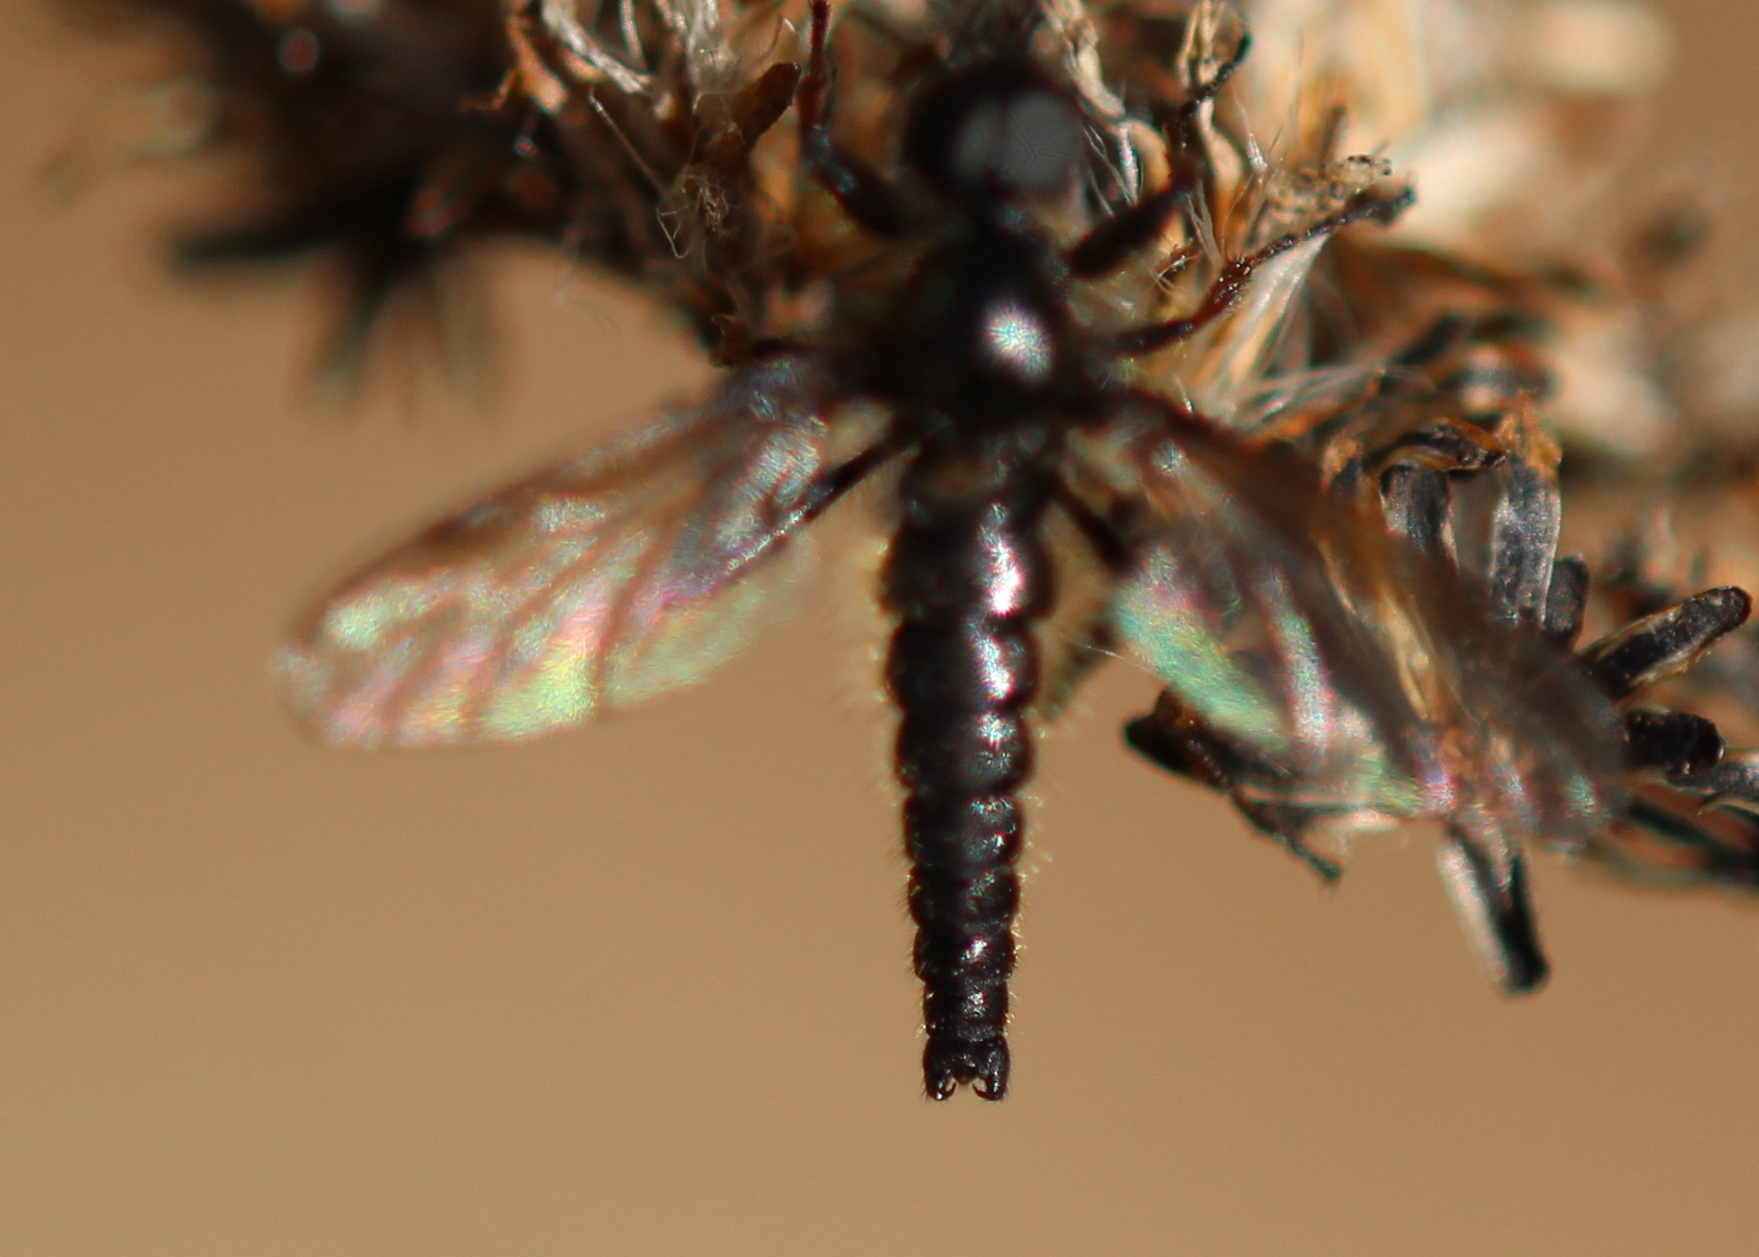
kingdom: Animalia
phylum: Arthropoda
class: Insecta
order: Diptera
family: Bibionidae
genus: Bibio
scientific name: Bibio lanigerus
